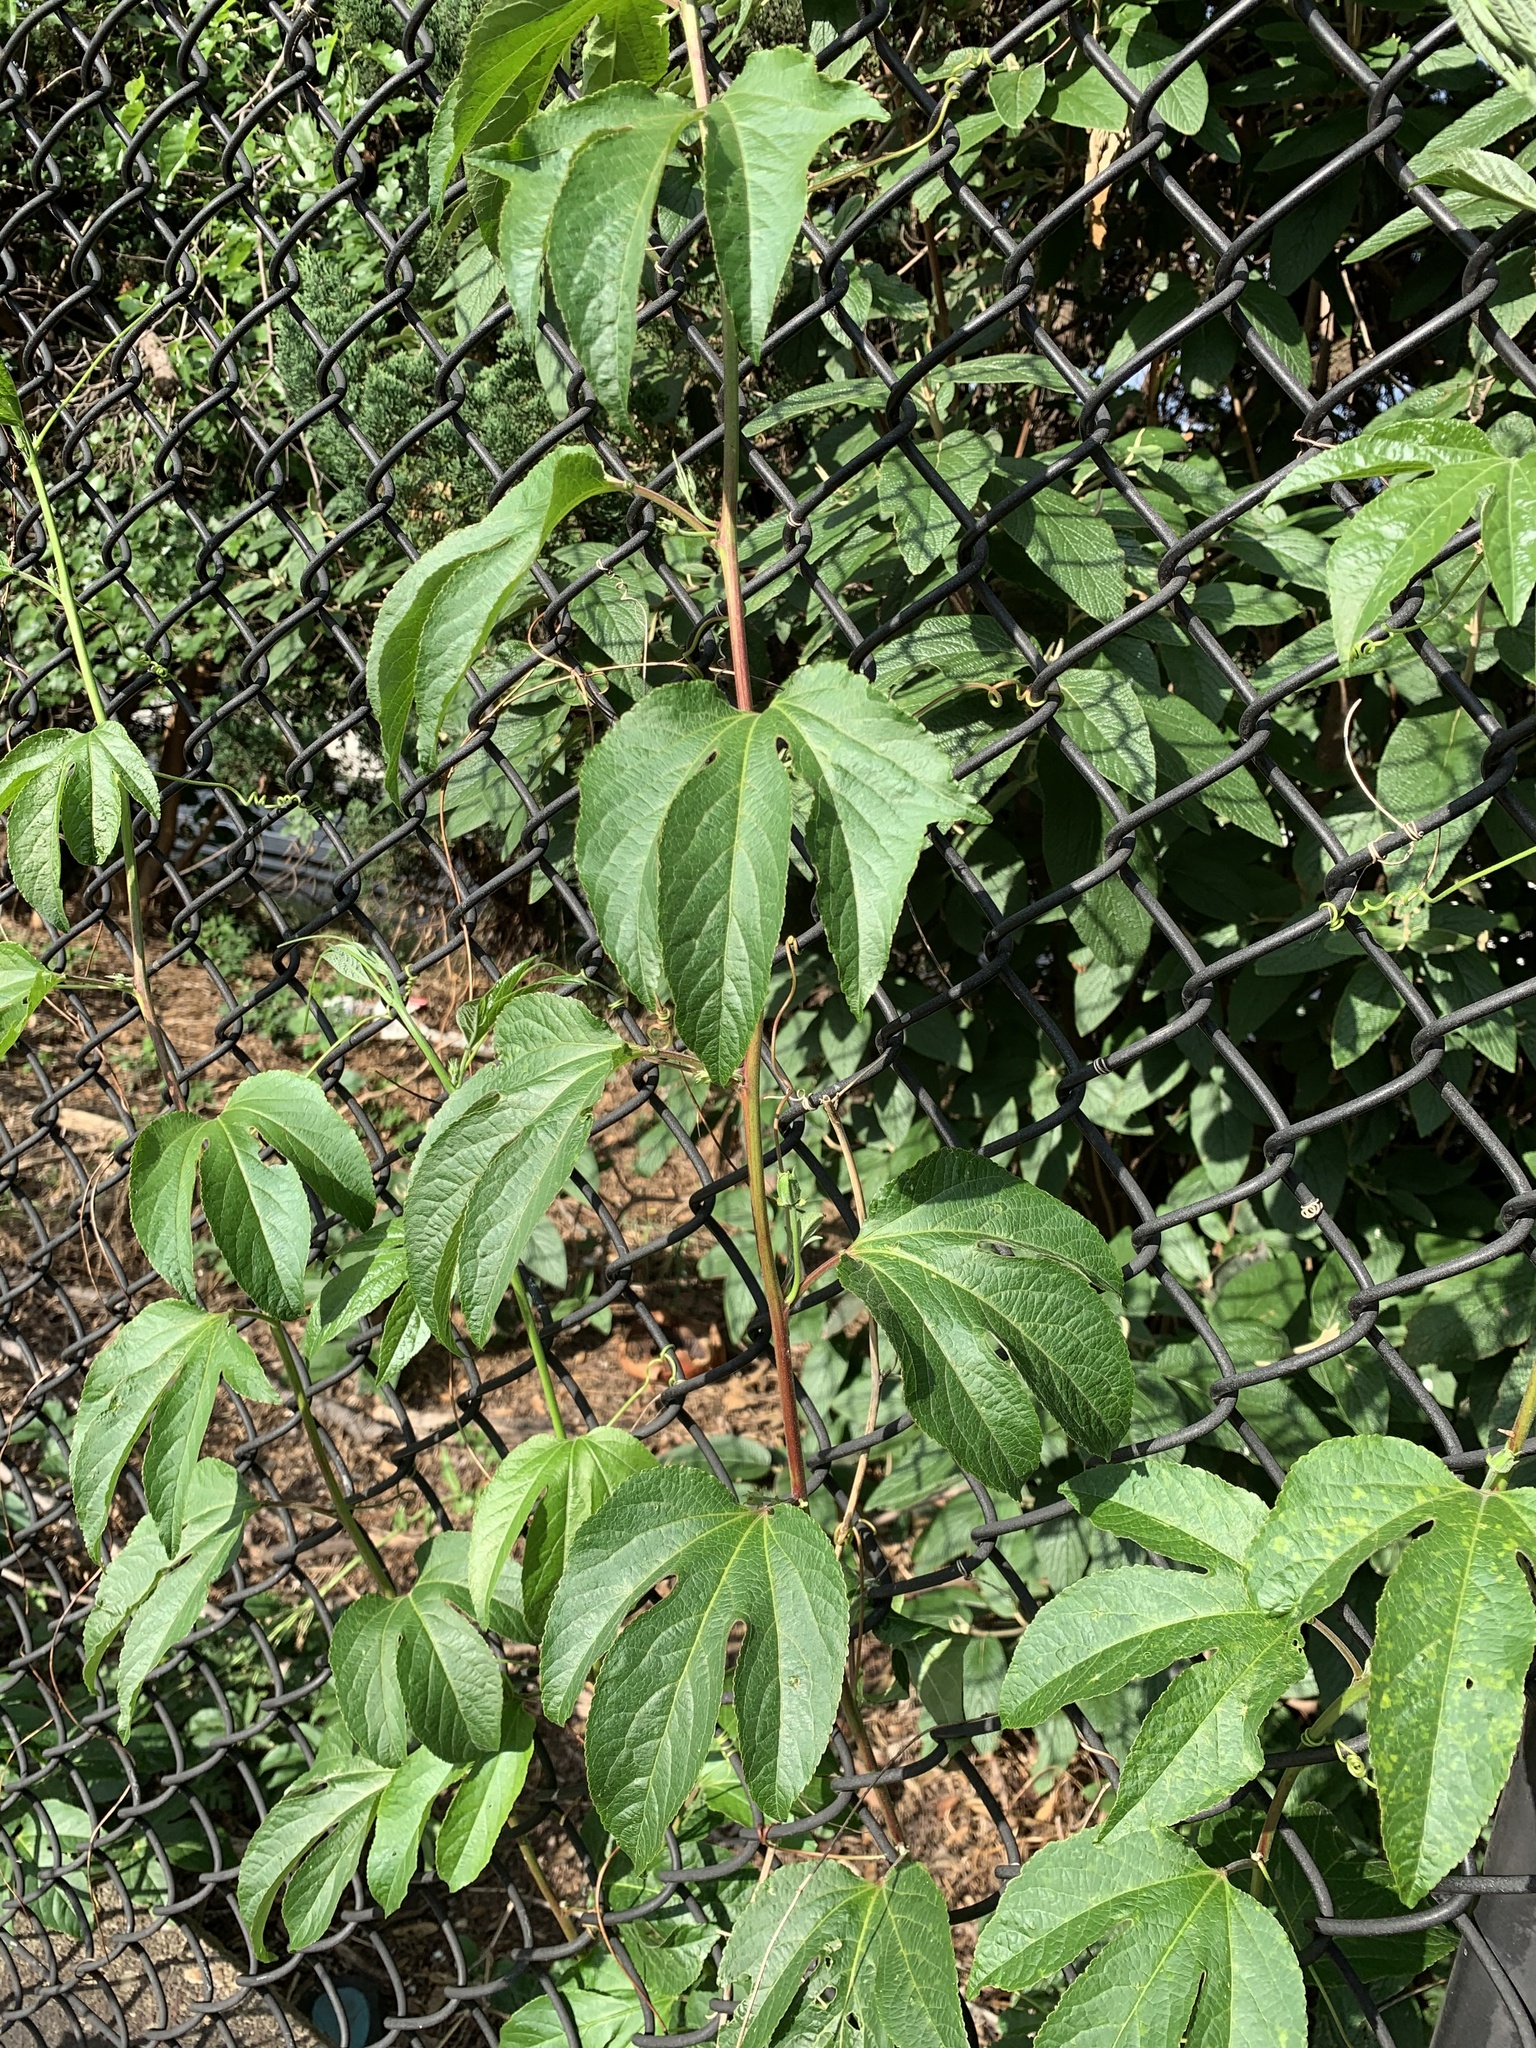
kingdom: Plantae
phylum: Tracheophyta
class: Magnoliopsida
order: Malpighiales
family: Passifloraceae
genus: Passiflora
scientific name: Passiflora incarnata
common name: Apricot-vine
